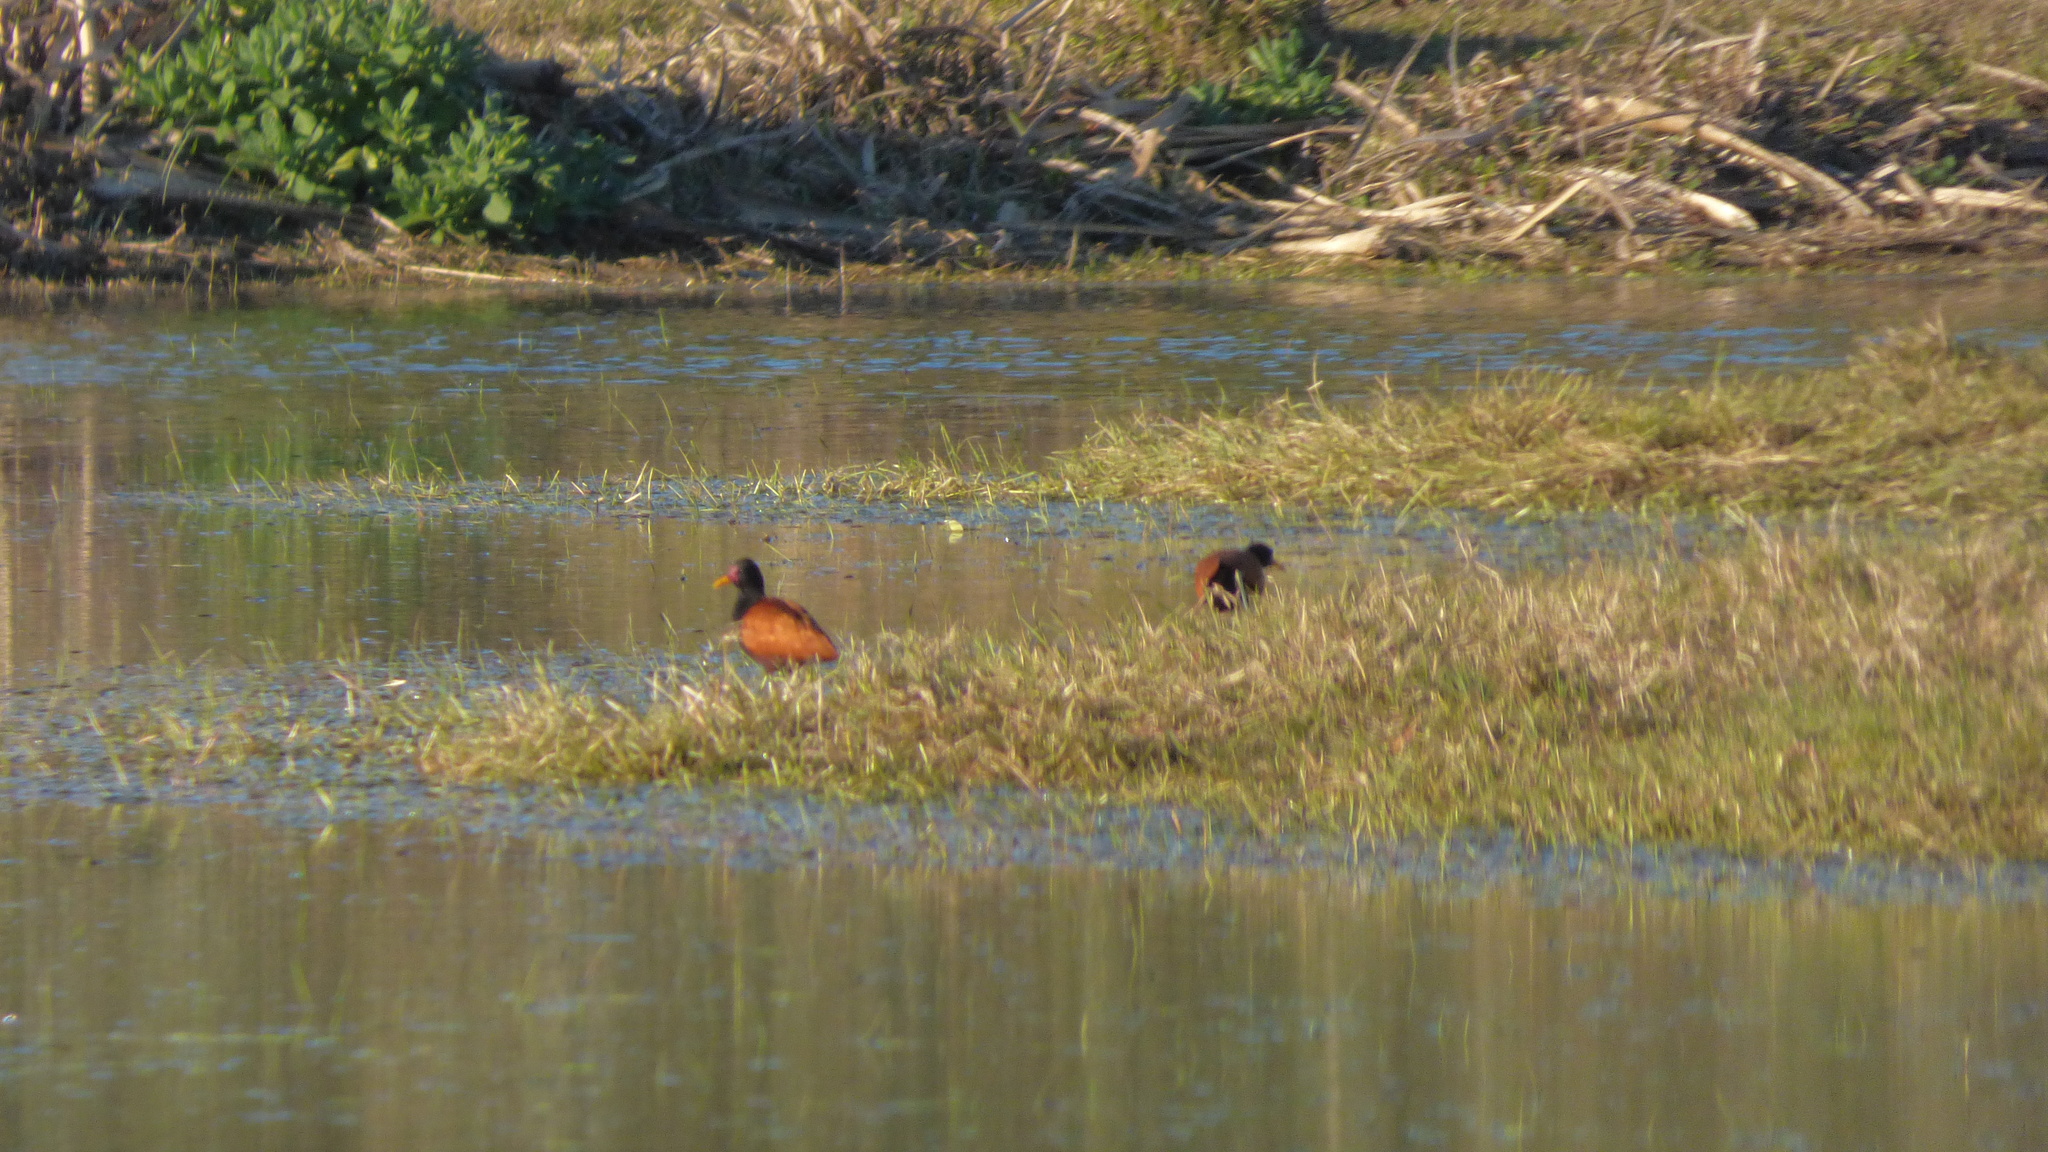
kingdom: Animalia
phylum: Chordata
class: Aves
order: Charadriiformes
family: Jacanidae
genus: Jacana
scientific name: Jacana jacana
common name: Wattled jacana
